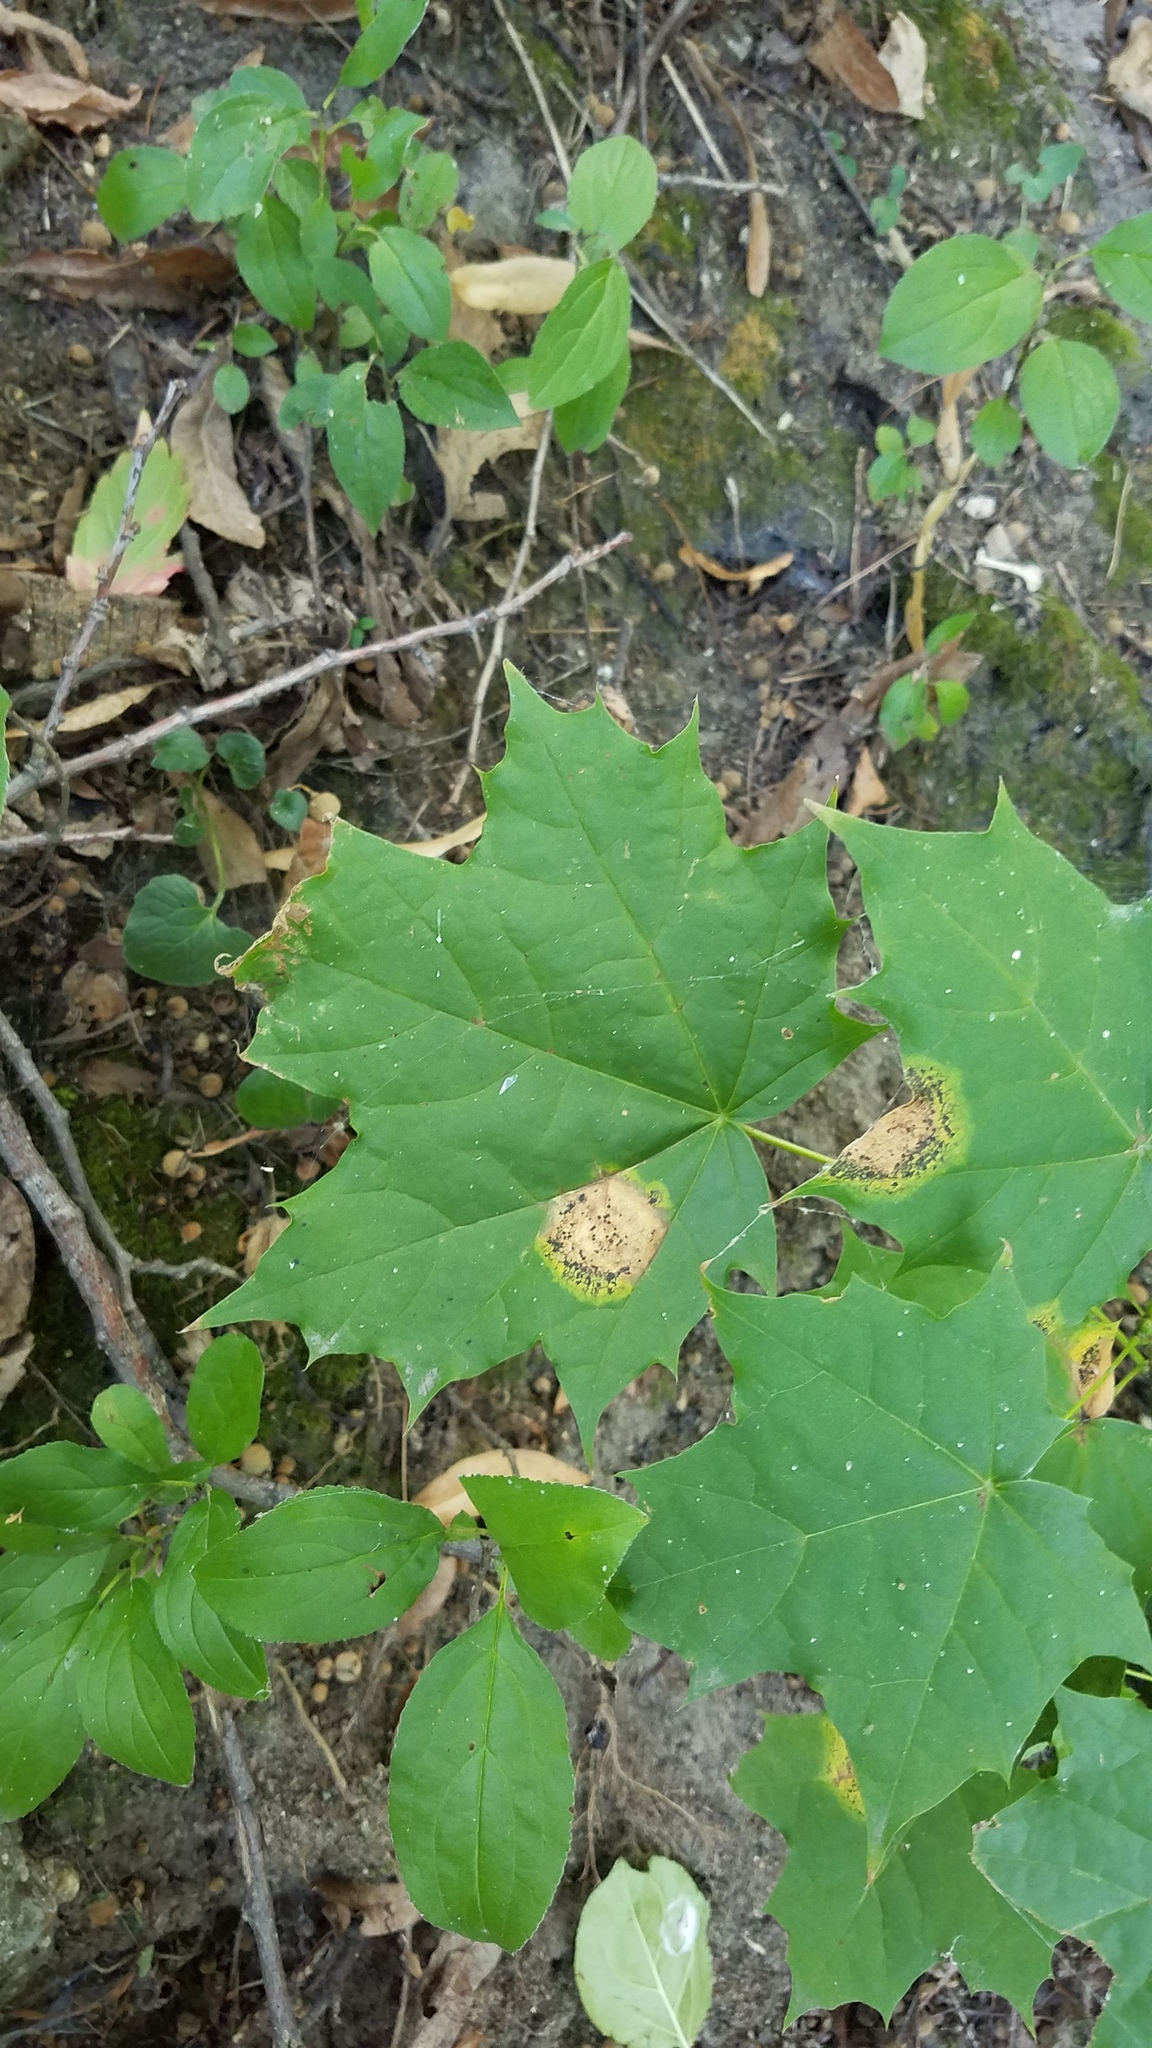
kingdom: Fungi
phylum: Ascomycota
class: Leotiomycetes
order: Rhytismatales
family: Rhytismataceae
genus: Rhytisma
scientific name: Rhytisma acerinum
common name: European tar spot
